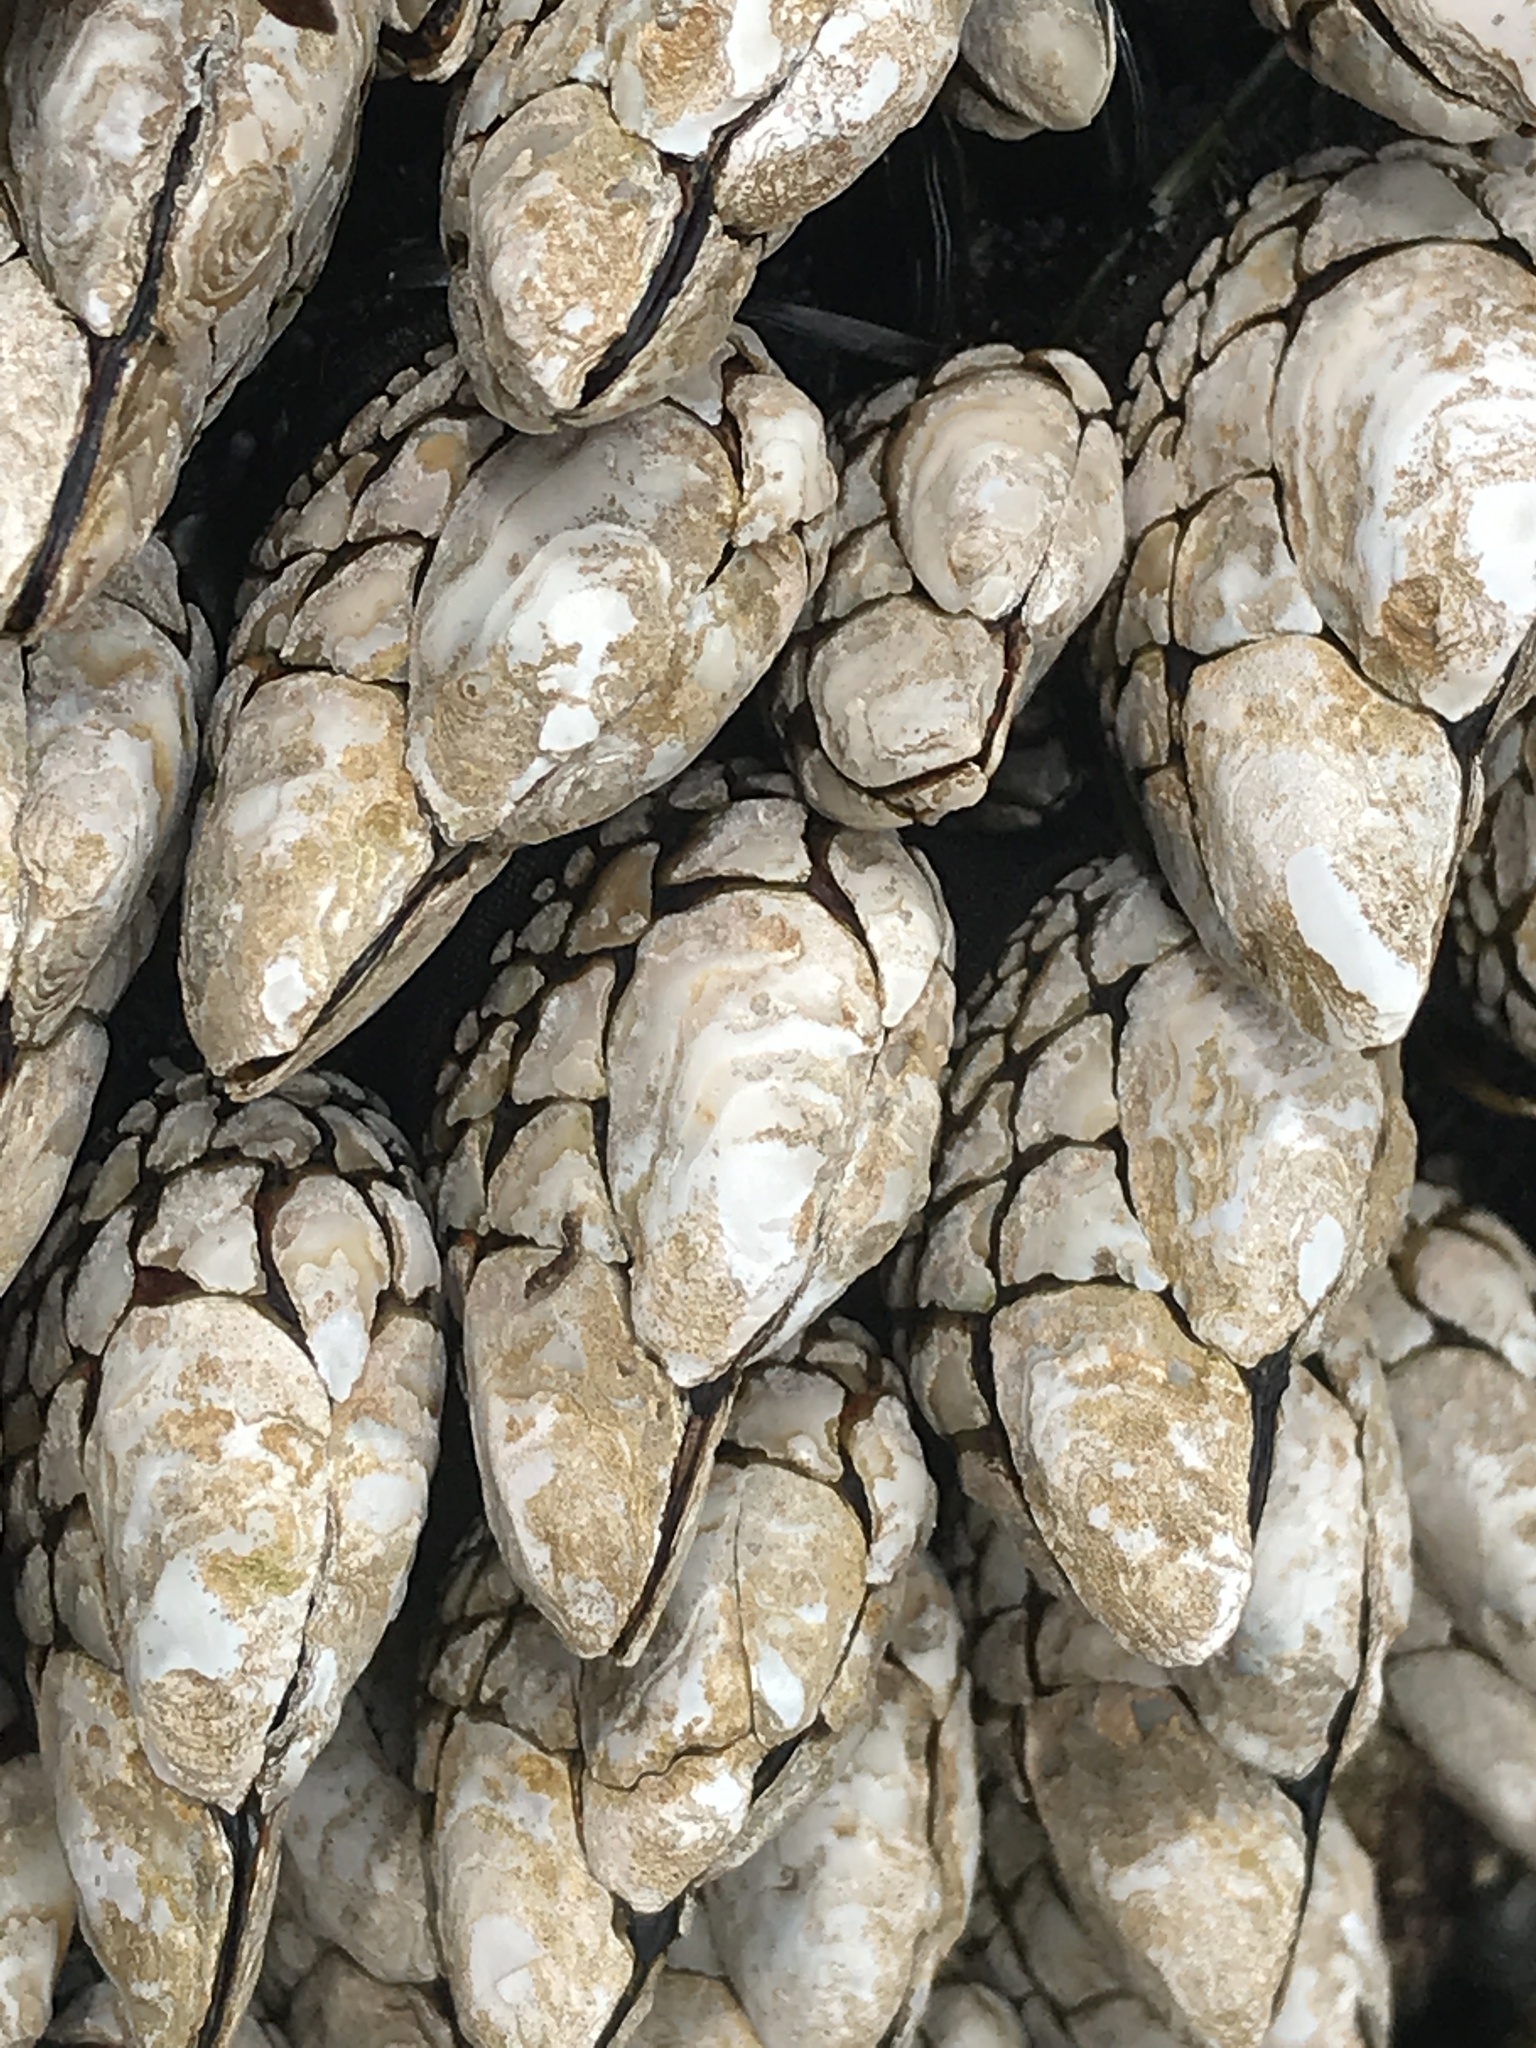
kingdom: Animalia
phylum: Arthropoda
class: Maxillopoda
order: Pedunculata
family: Pollicipedidae
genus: Pollicipes
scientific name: Pollicipes polymerus
